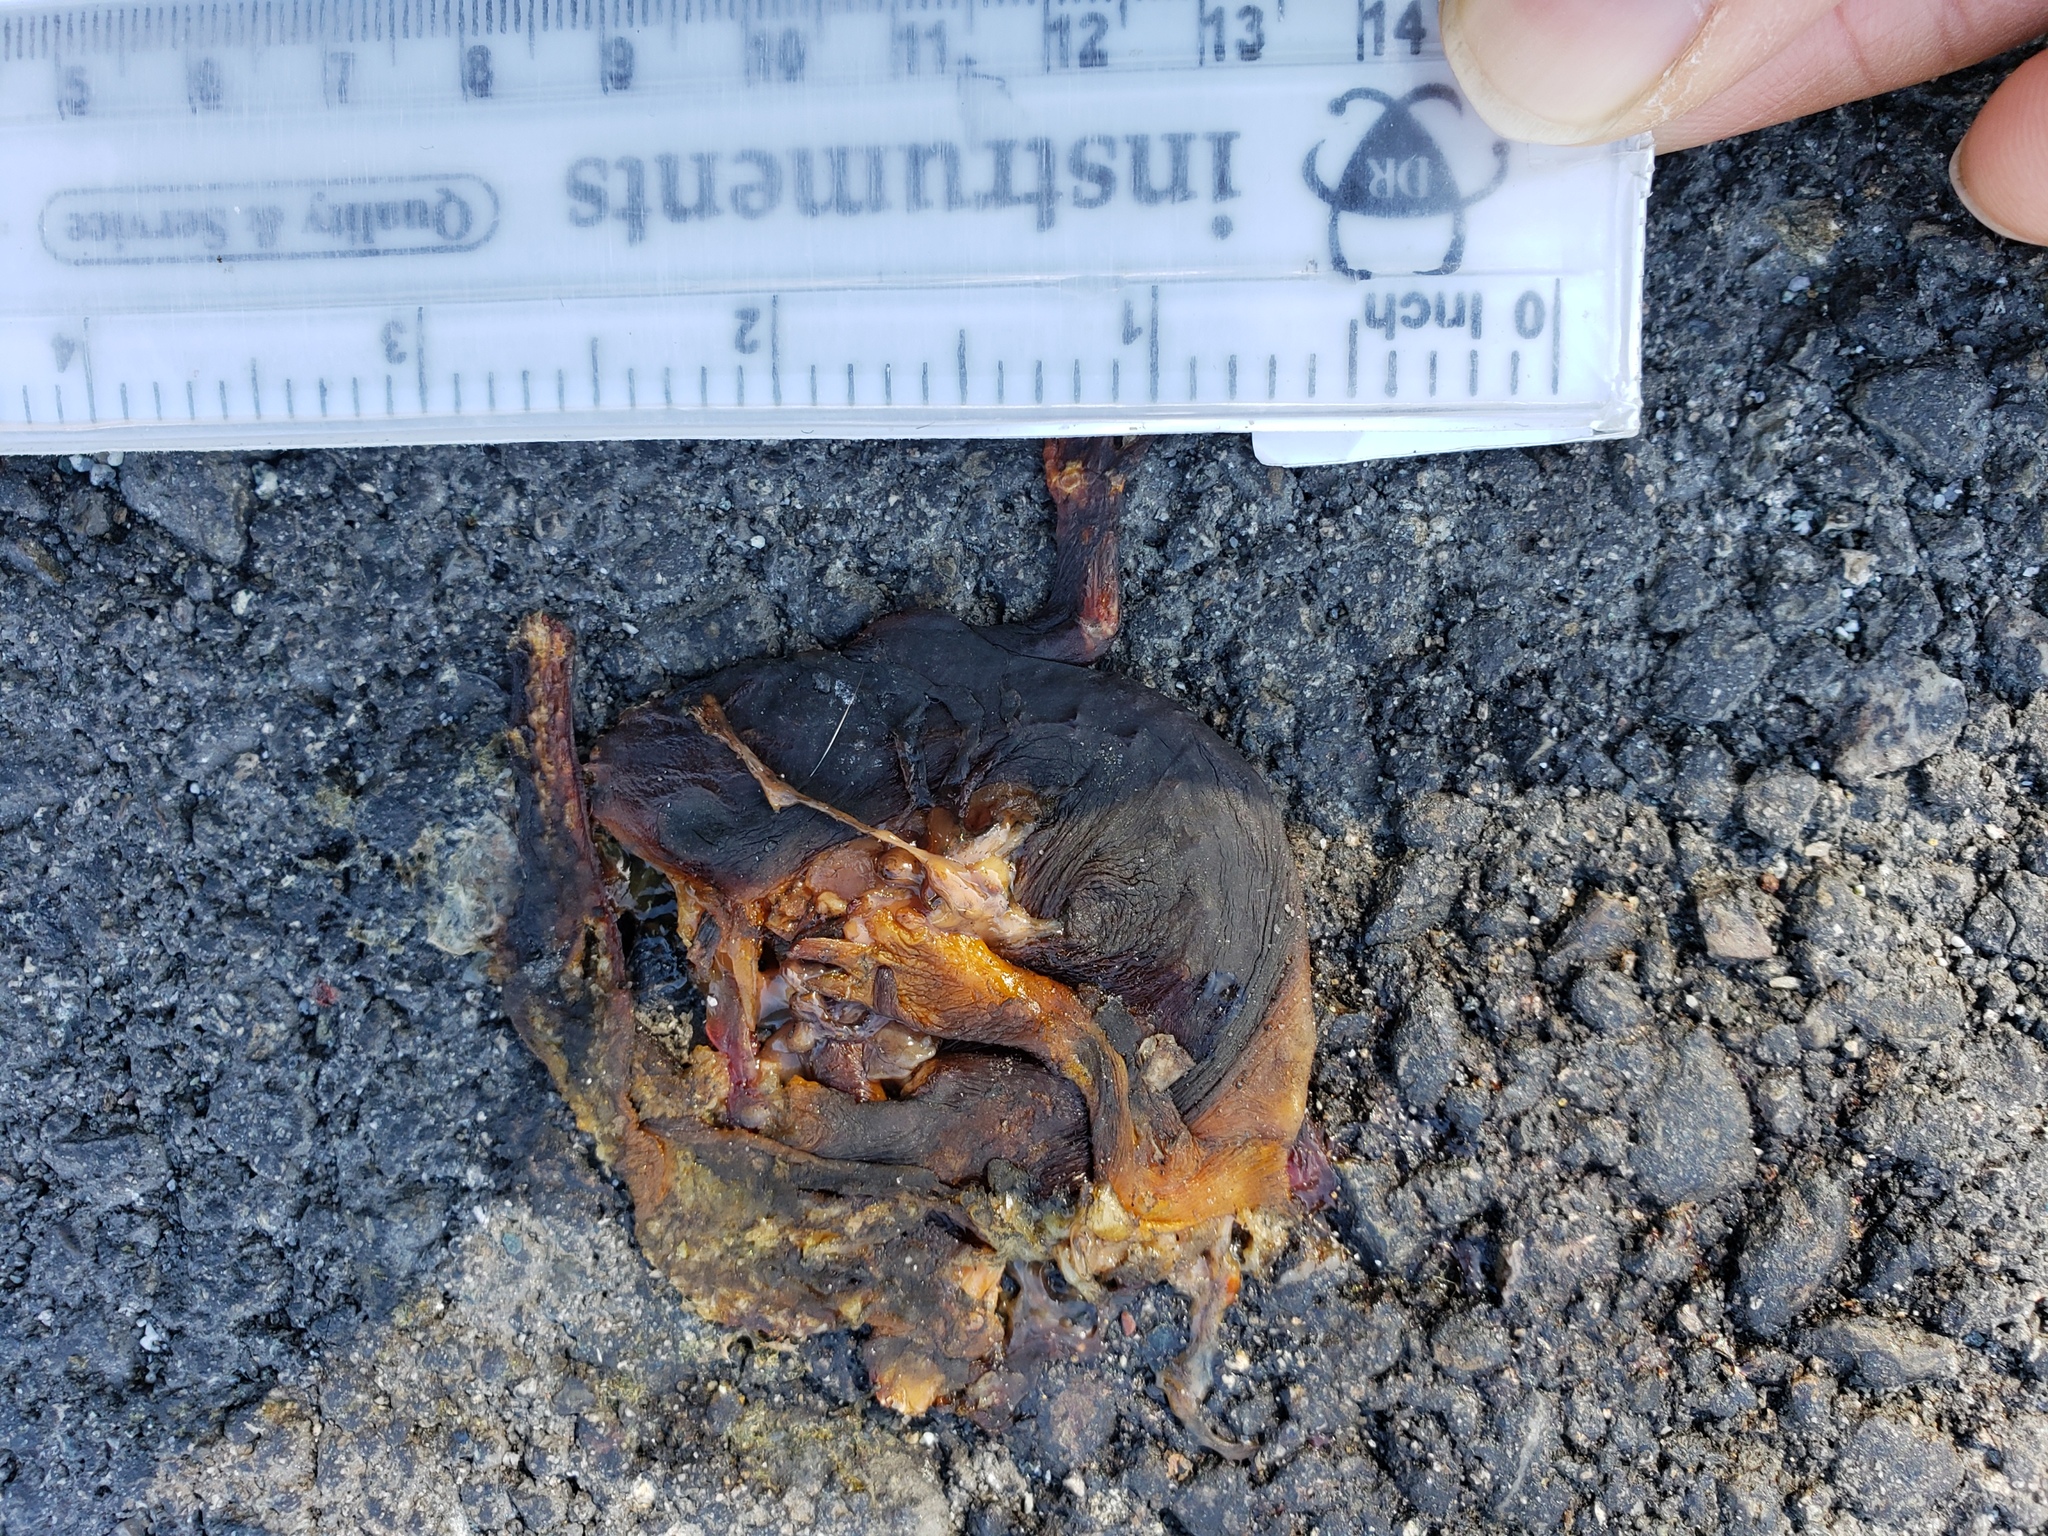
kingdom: Animalia
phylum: Chordata
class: Amphibia
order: Caudata
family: Salamandridae
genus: Taricha
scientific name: Taricha
